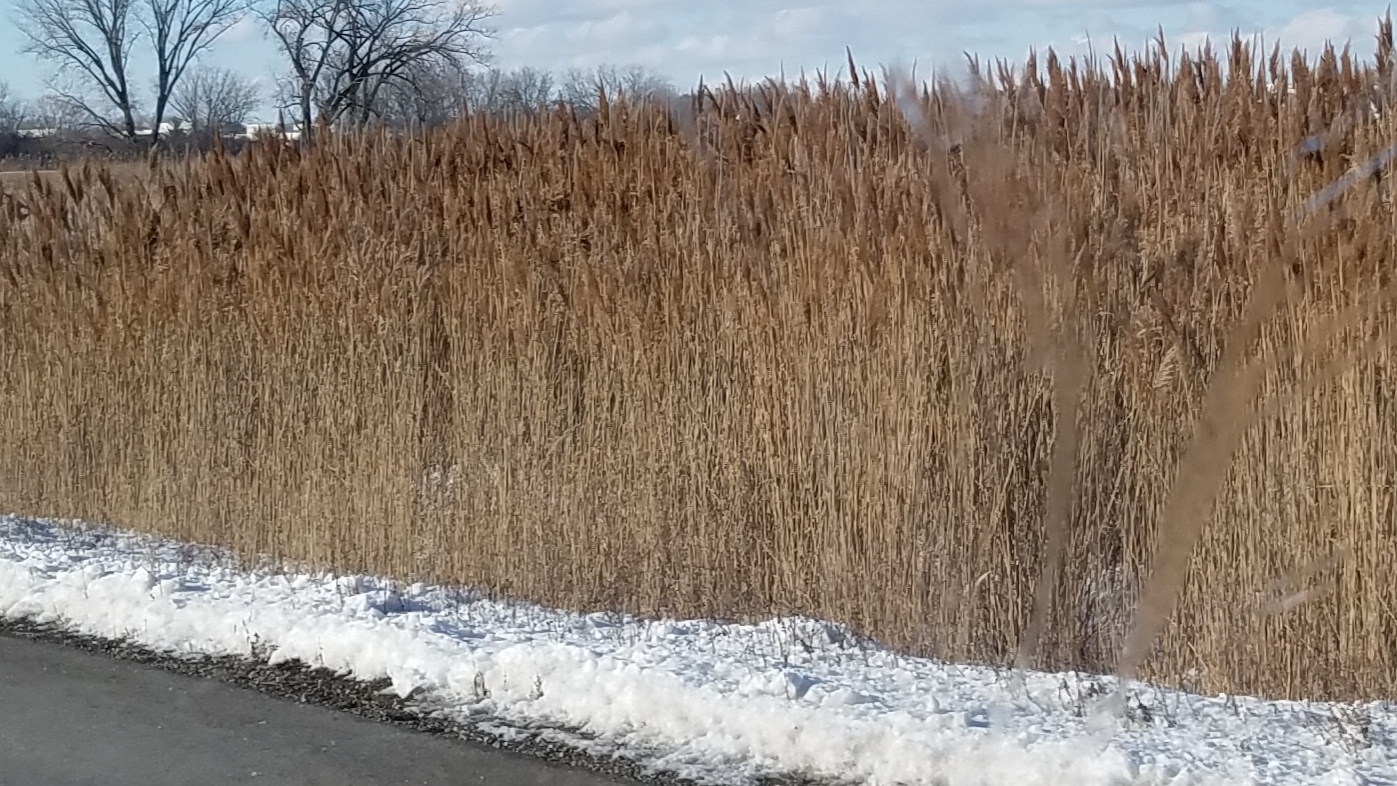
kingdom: Plantae
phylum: Tracheophyta
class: Liliopsida
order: Poales
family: Poaceae
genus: Phragmites
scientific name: Phragmites australis
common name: Common reed
